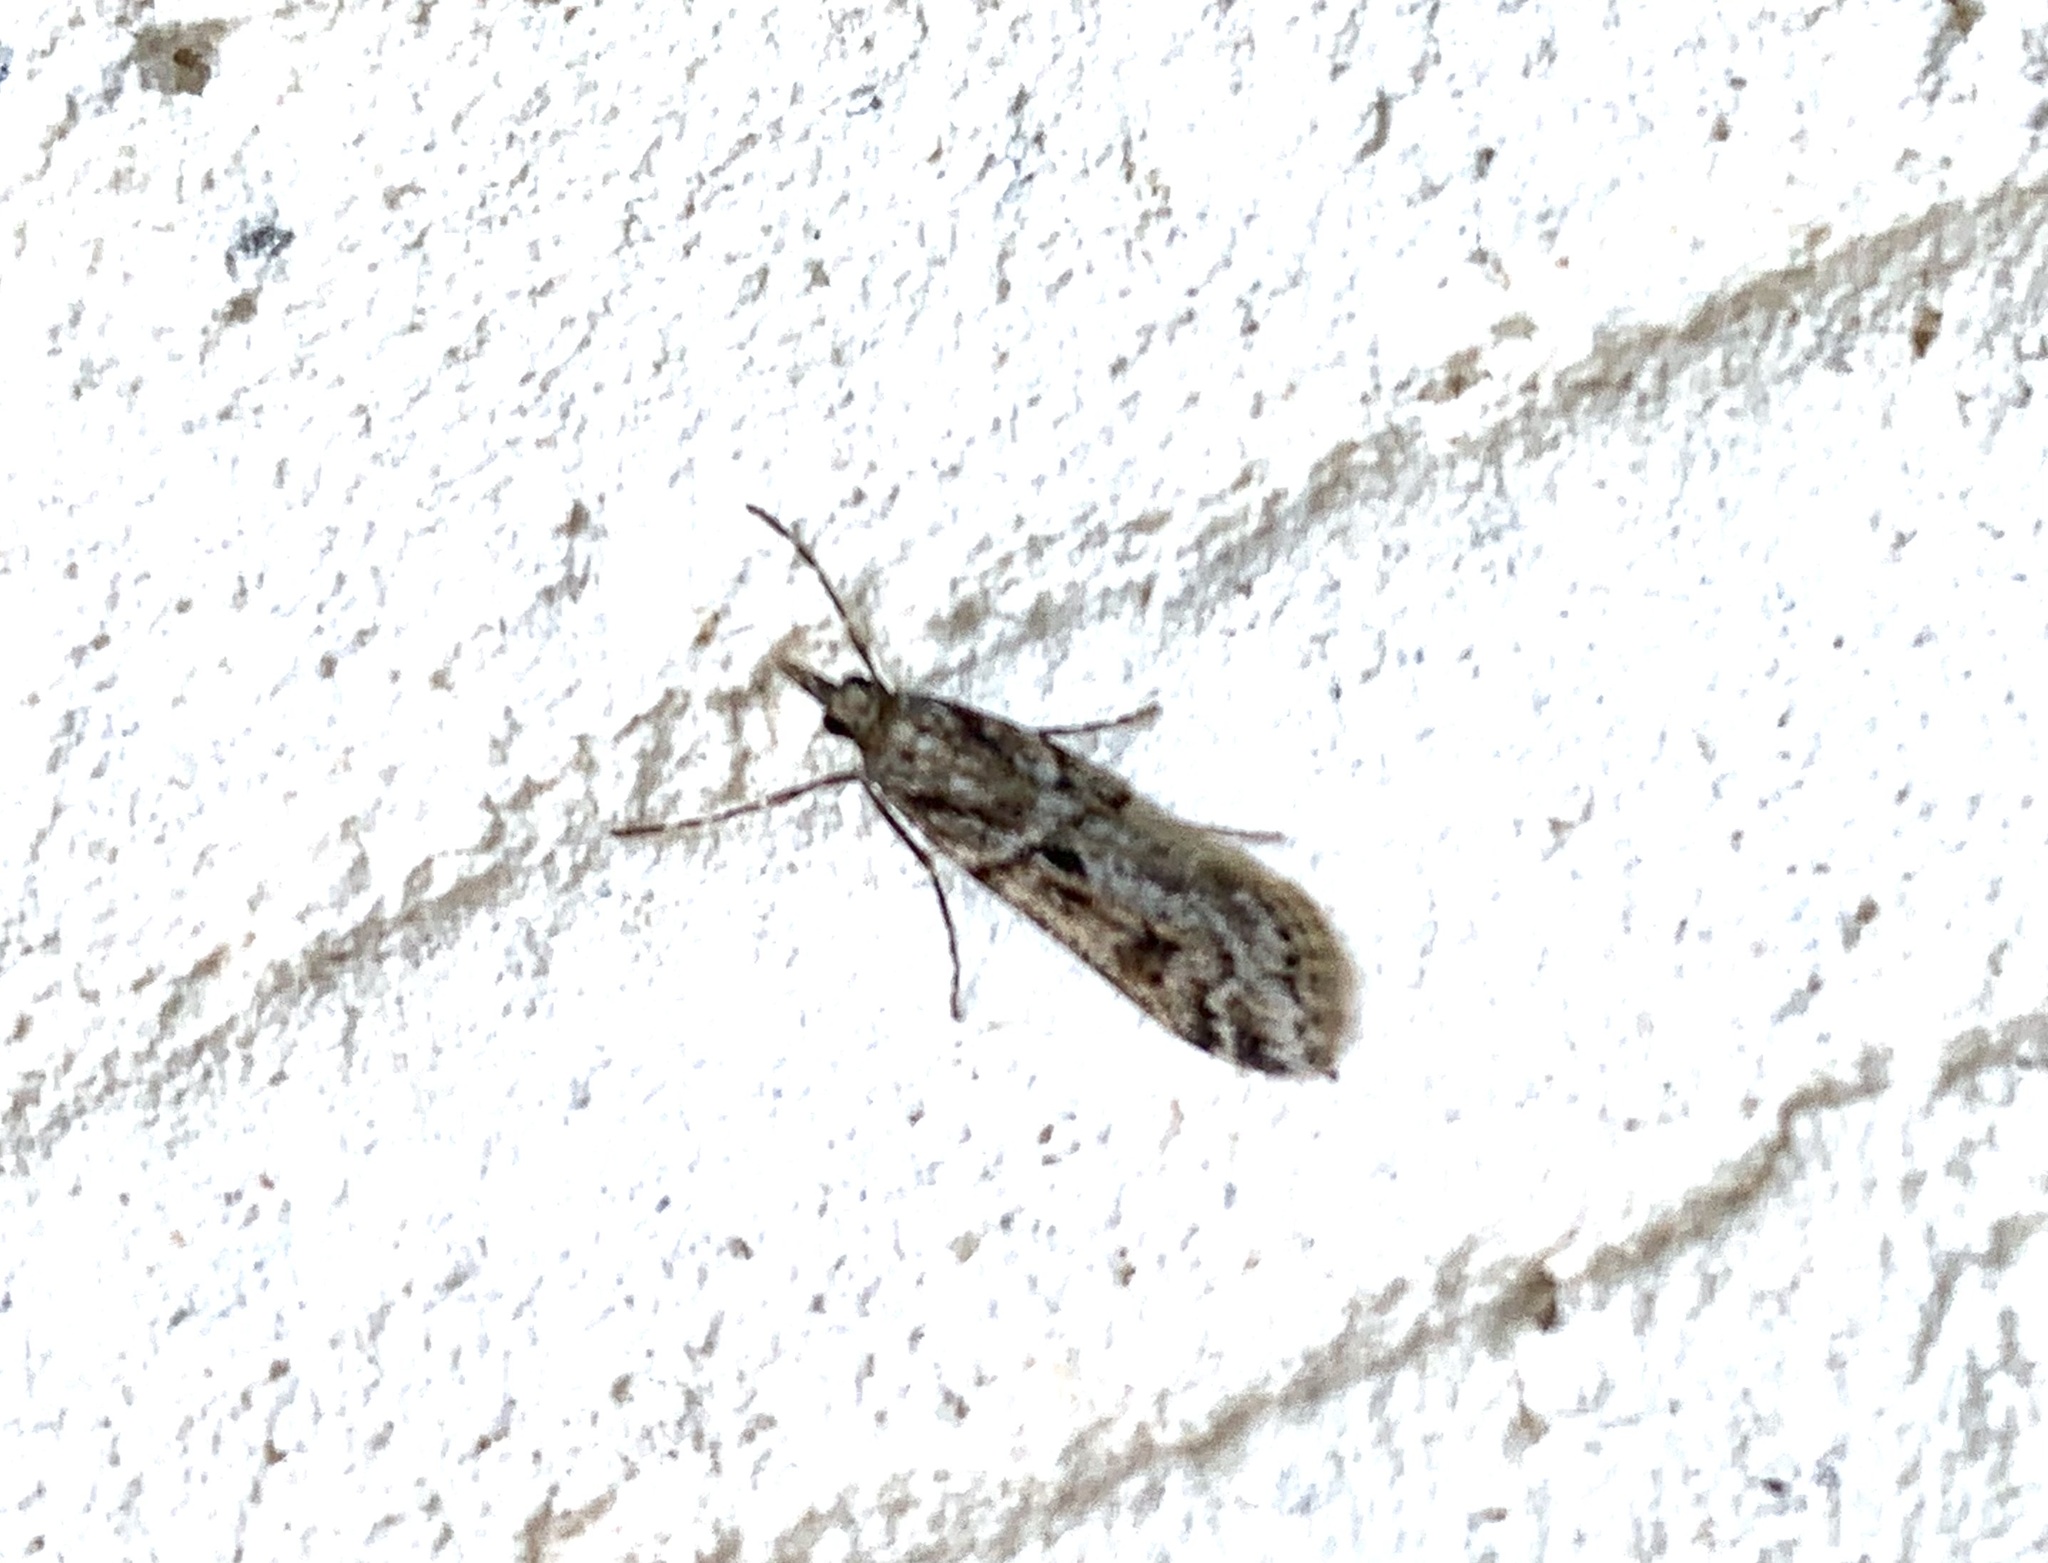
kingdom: Animalia
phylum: Arthropoda
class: Insecta
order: Lepidoptera
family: Crambidae
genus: Eudonia
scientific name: Eudonia angustea
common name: Narrow-winged grey
